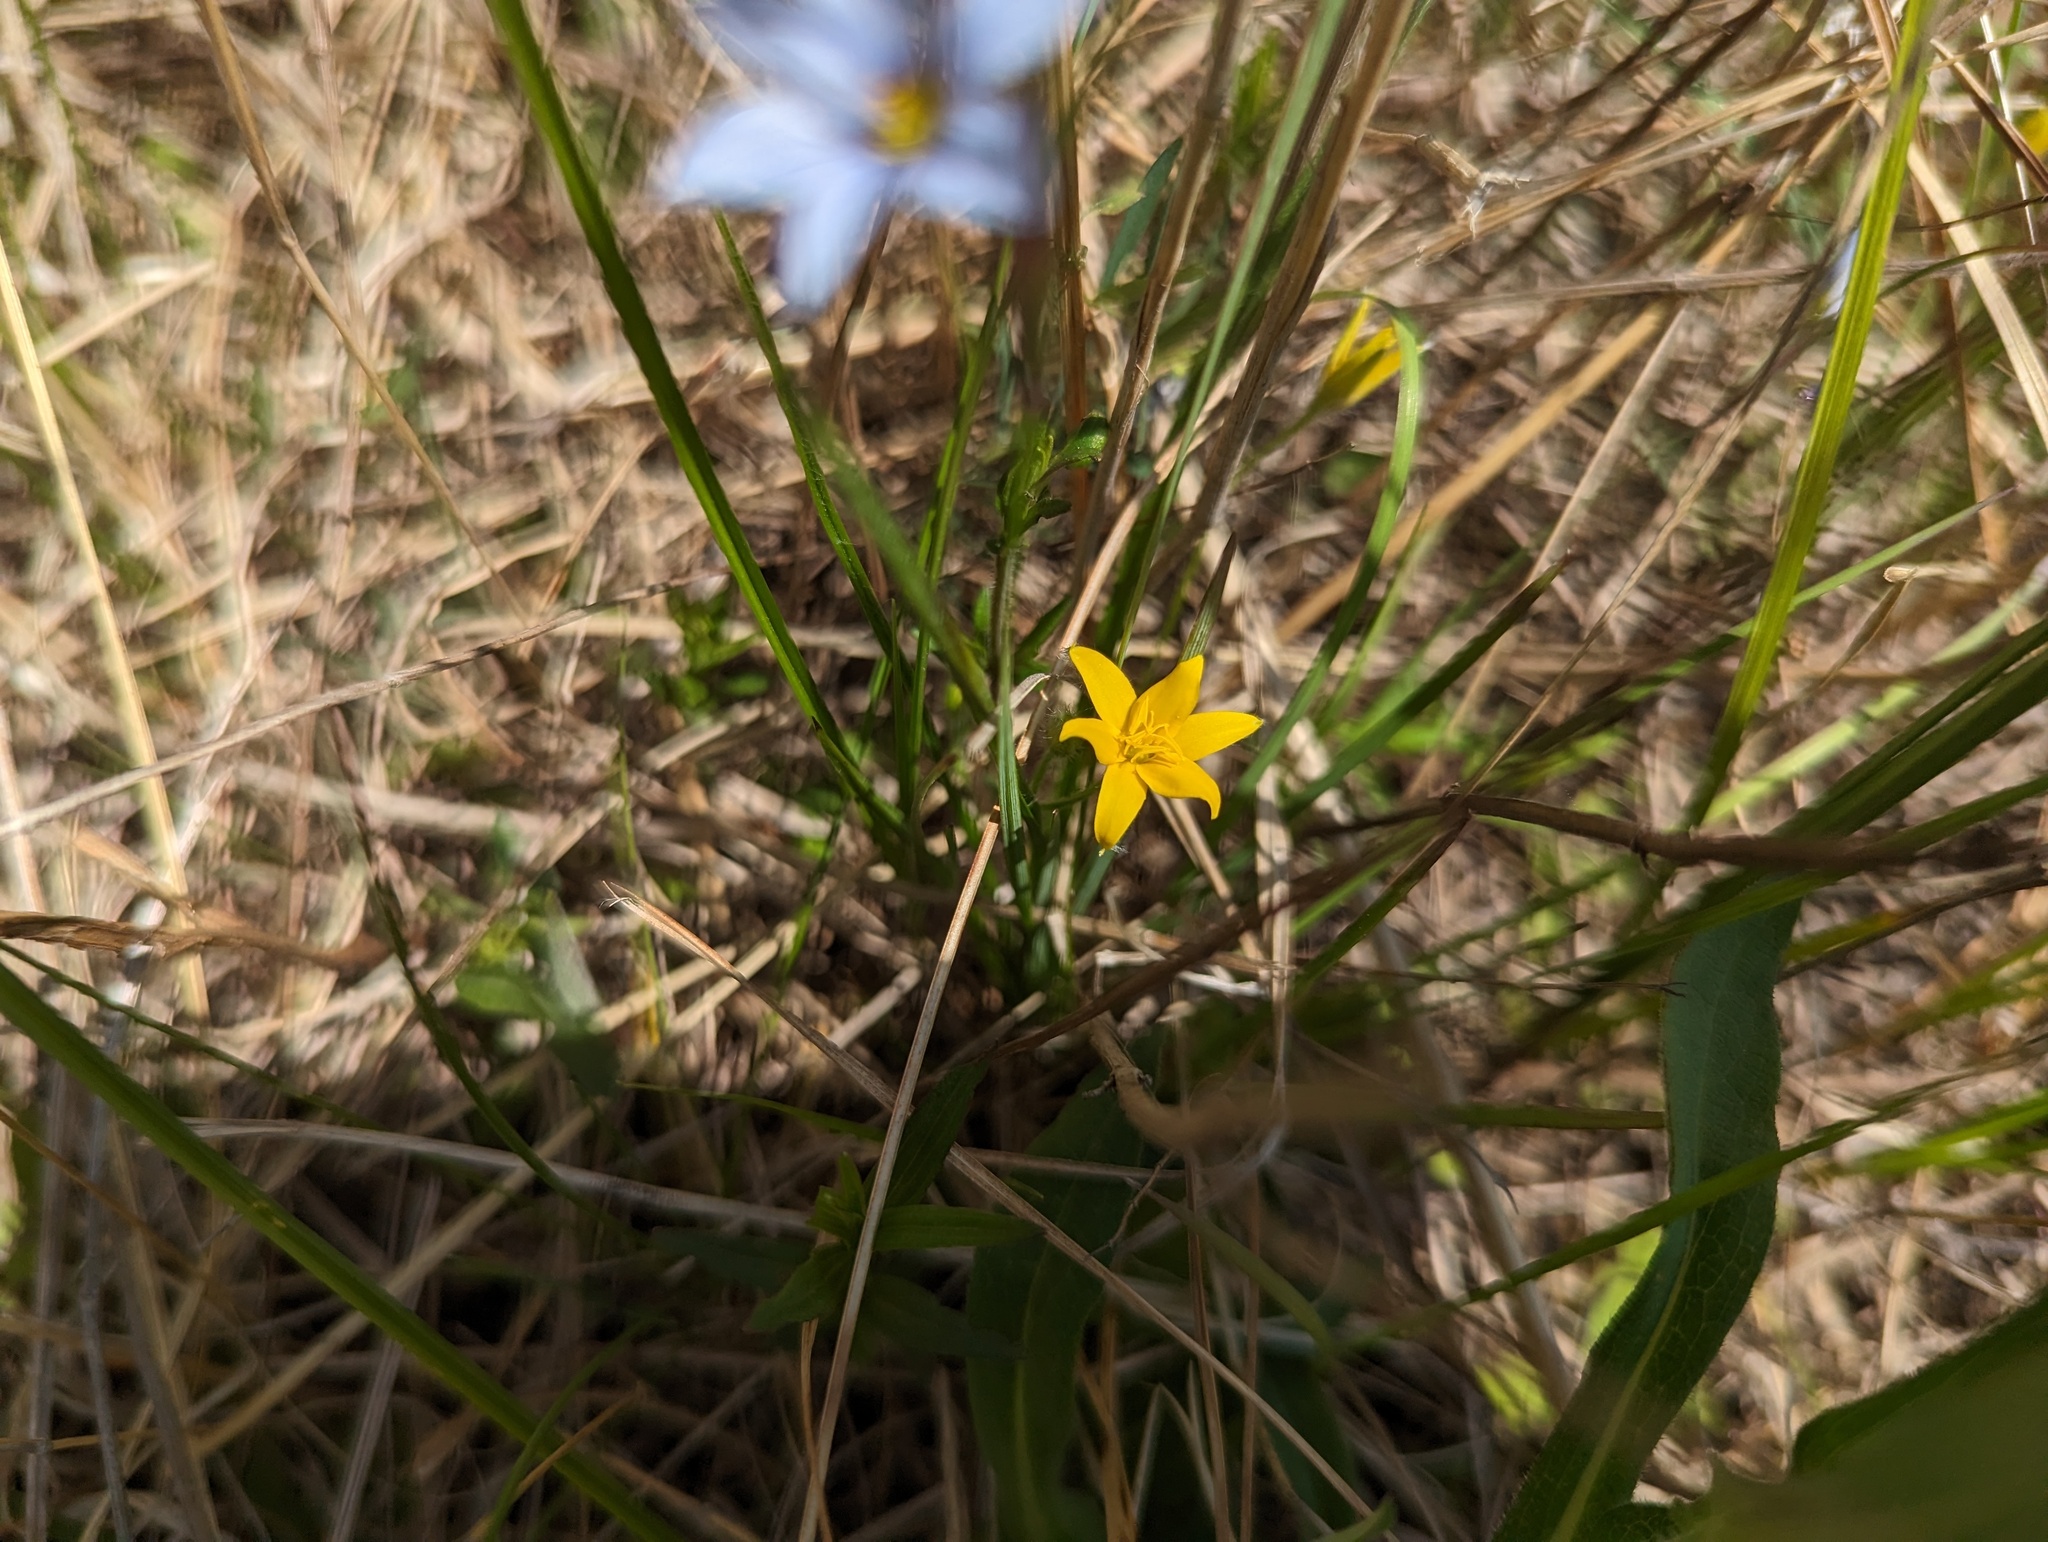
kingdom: Plantae
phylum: Tracheophyta
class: Liliopsida
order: Asparagales
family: Hypoxidaceae
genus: Hypoxis
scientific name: Hypoxis hirsuta
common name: Common goldstar
